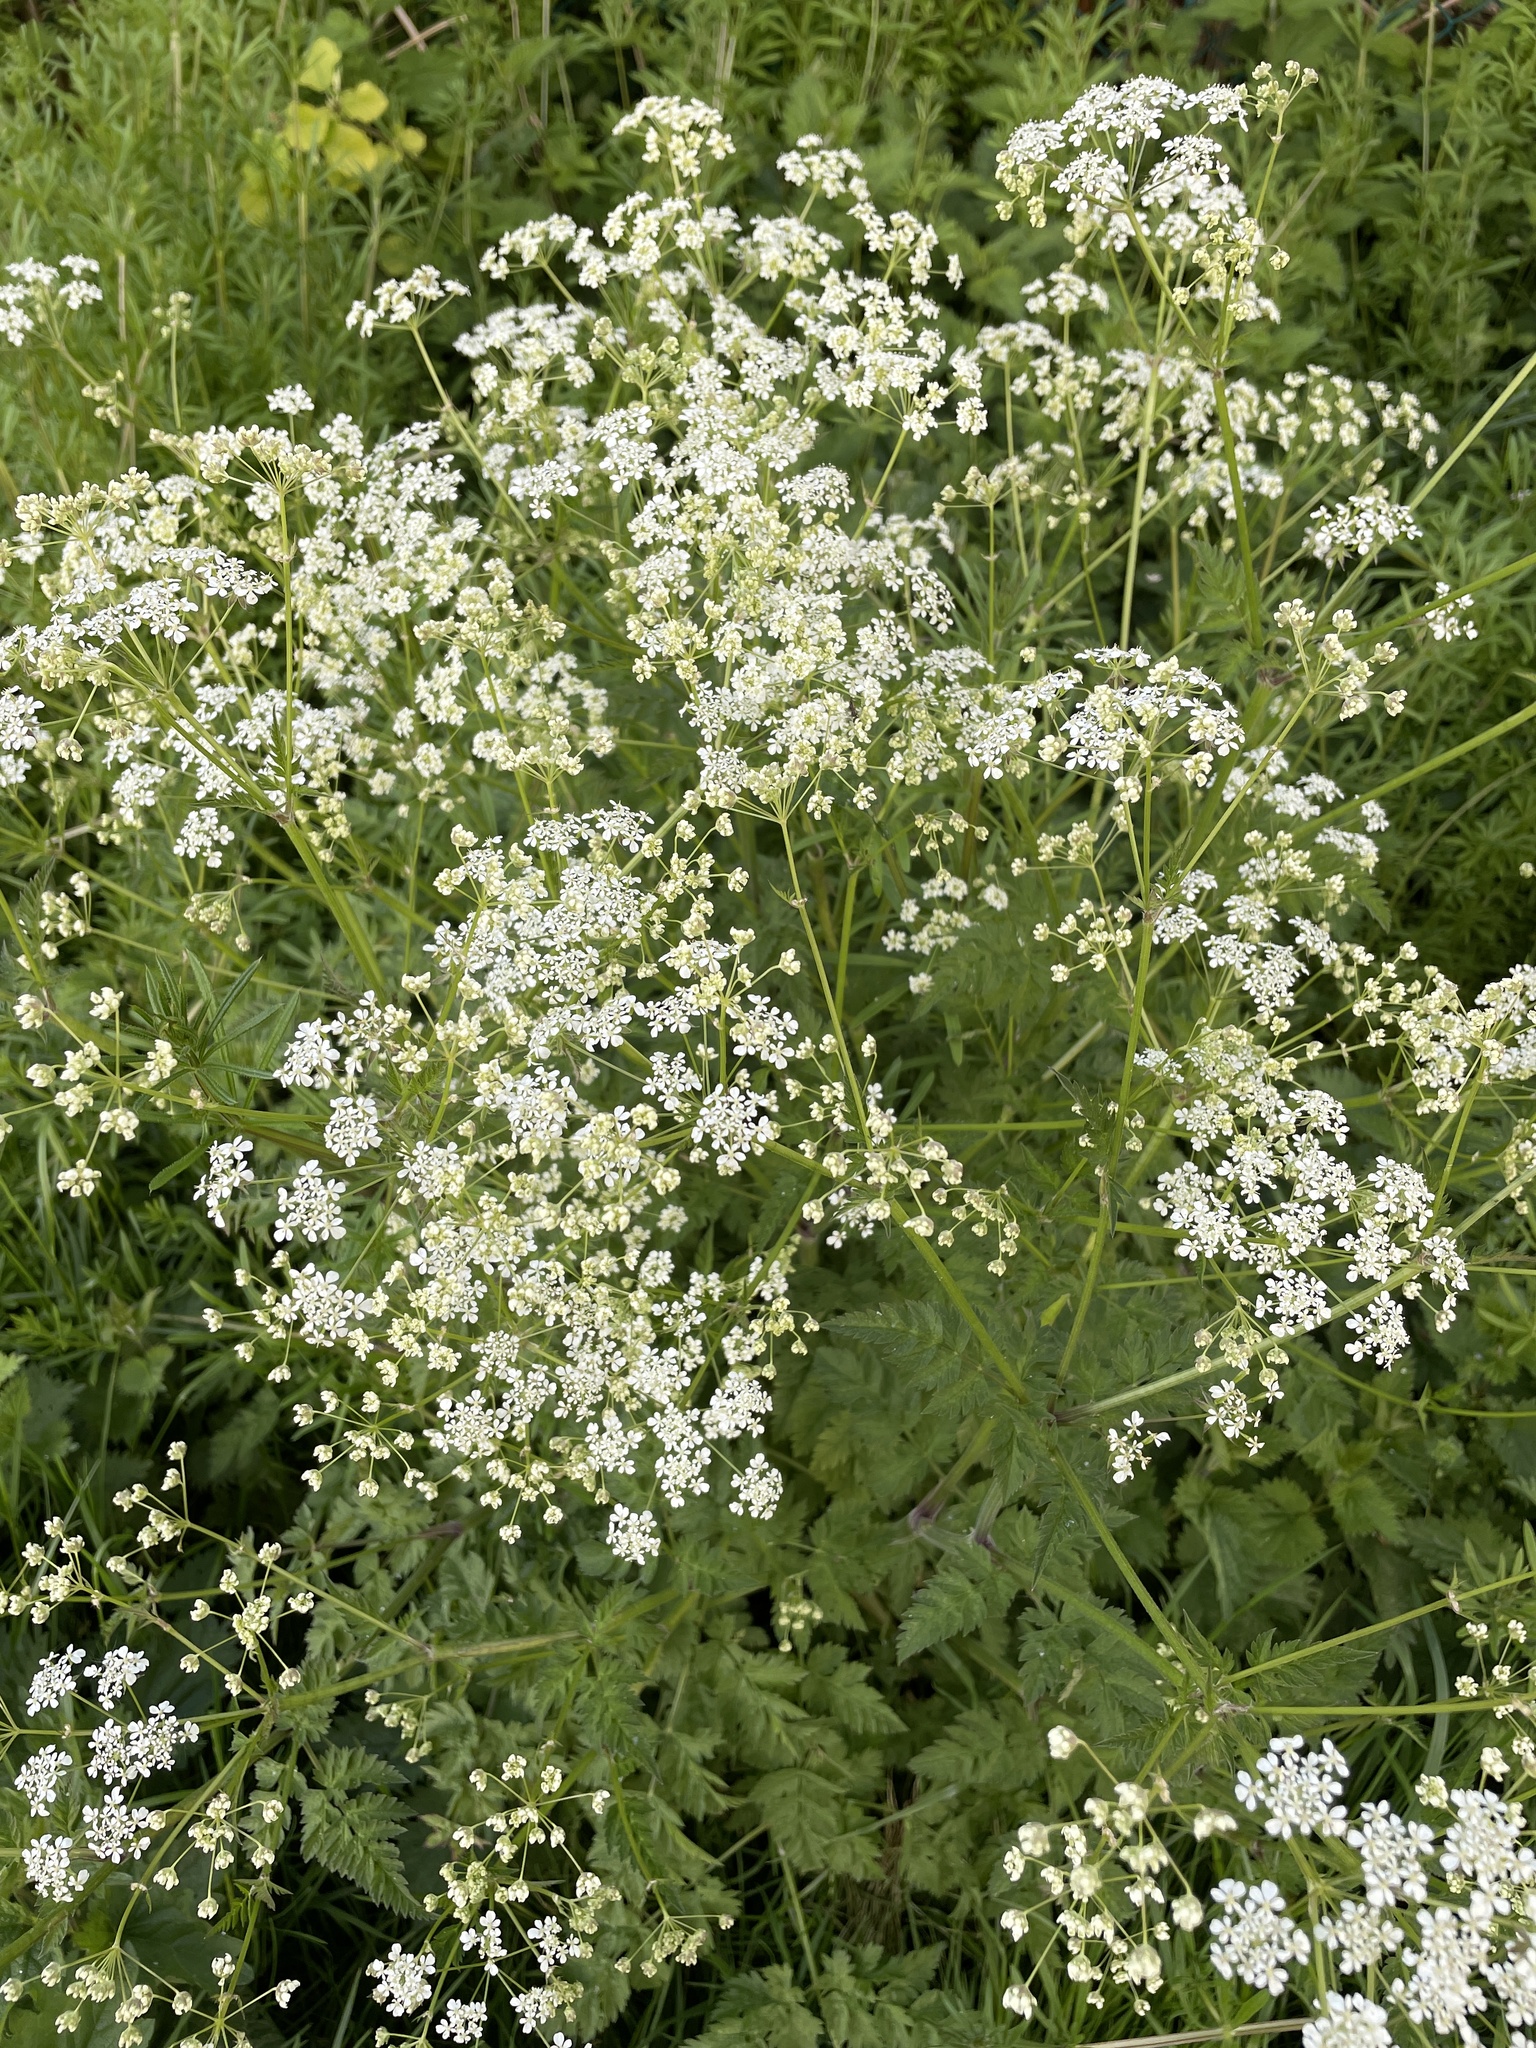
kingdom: Plantae
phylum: Tracheophyta
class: Magnoliopsida
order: Apiales
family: Apiaceae
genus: Anthriscus
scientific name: Anthriscus sylvestris
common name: Cow parsley
